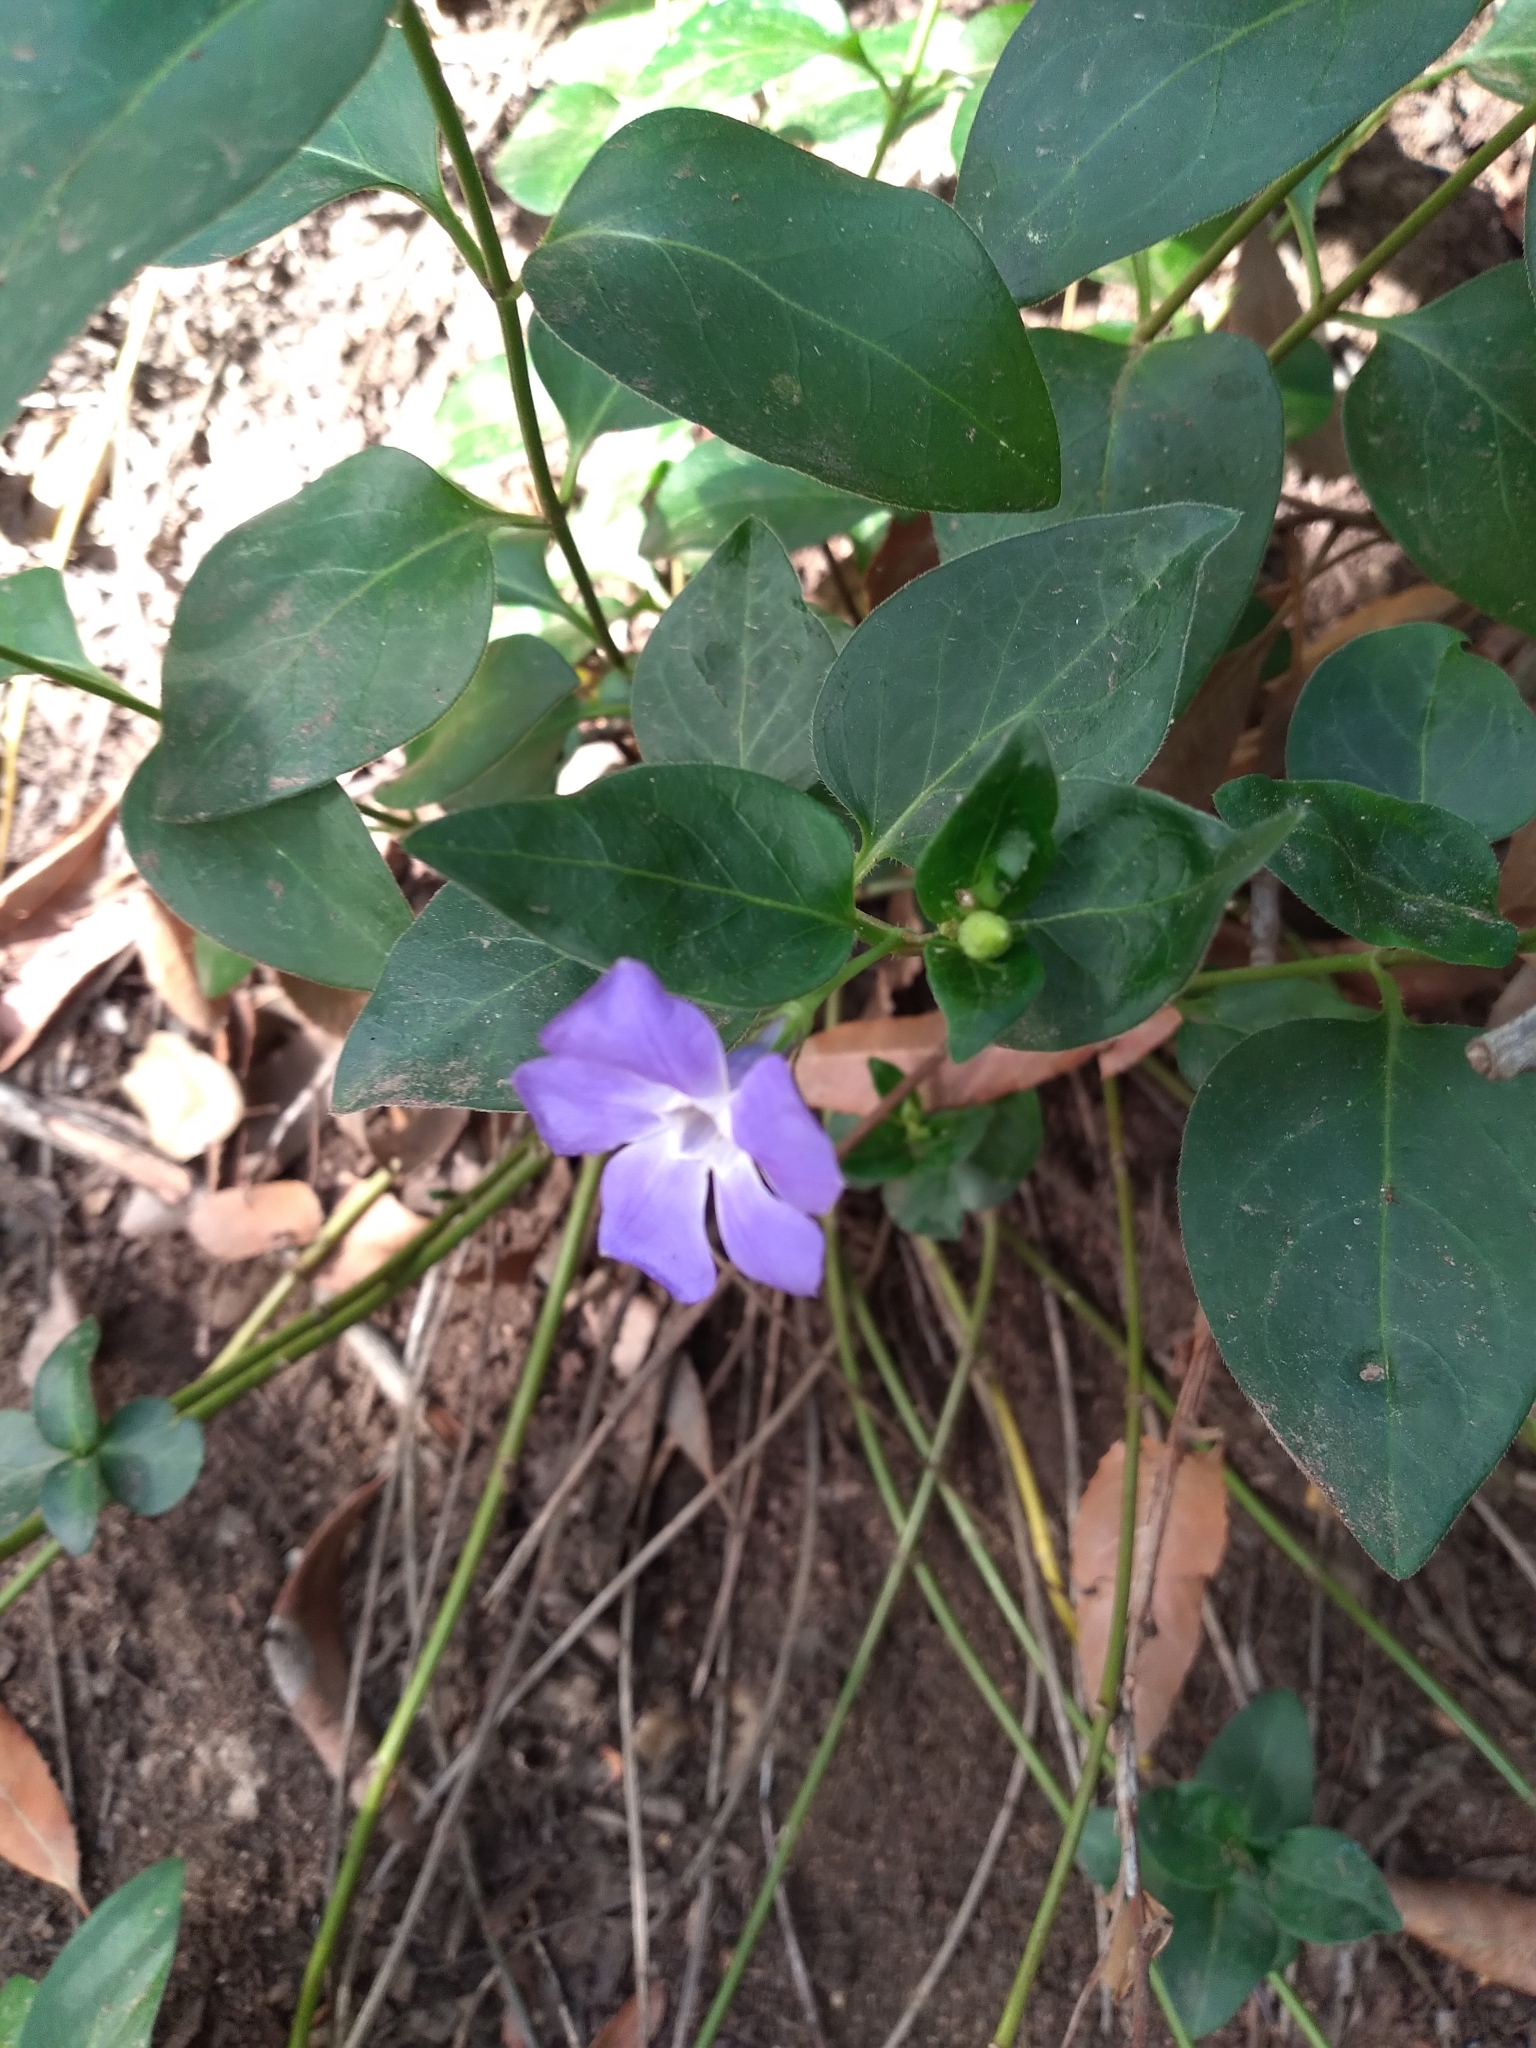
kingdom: Plantae
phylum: Tracheophyta
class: Magnoliopsida
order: Gentianales
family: Apocynaceae
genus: Vinca
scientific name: Vinca major
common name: Greater periwinkle
